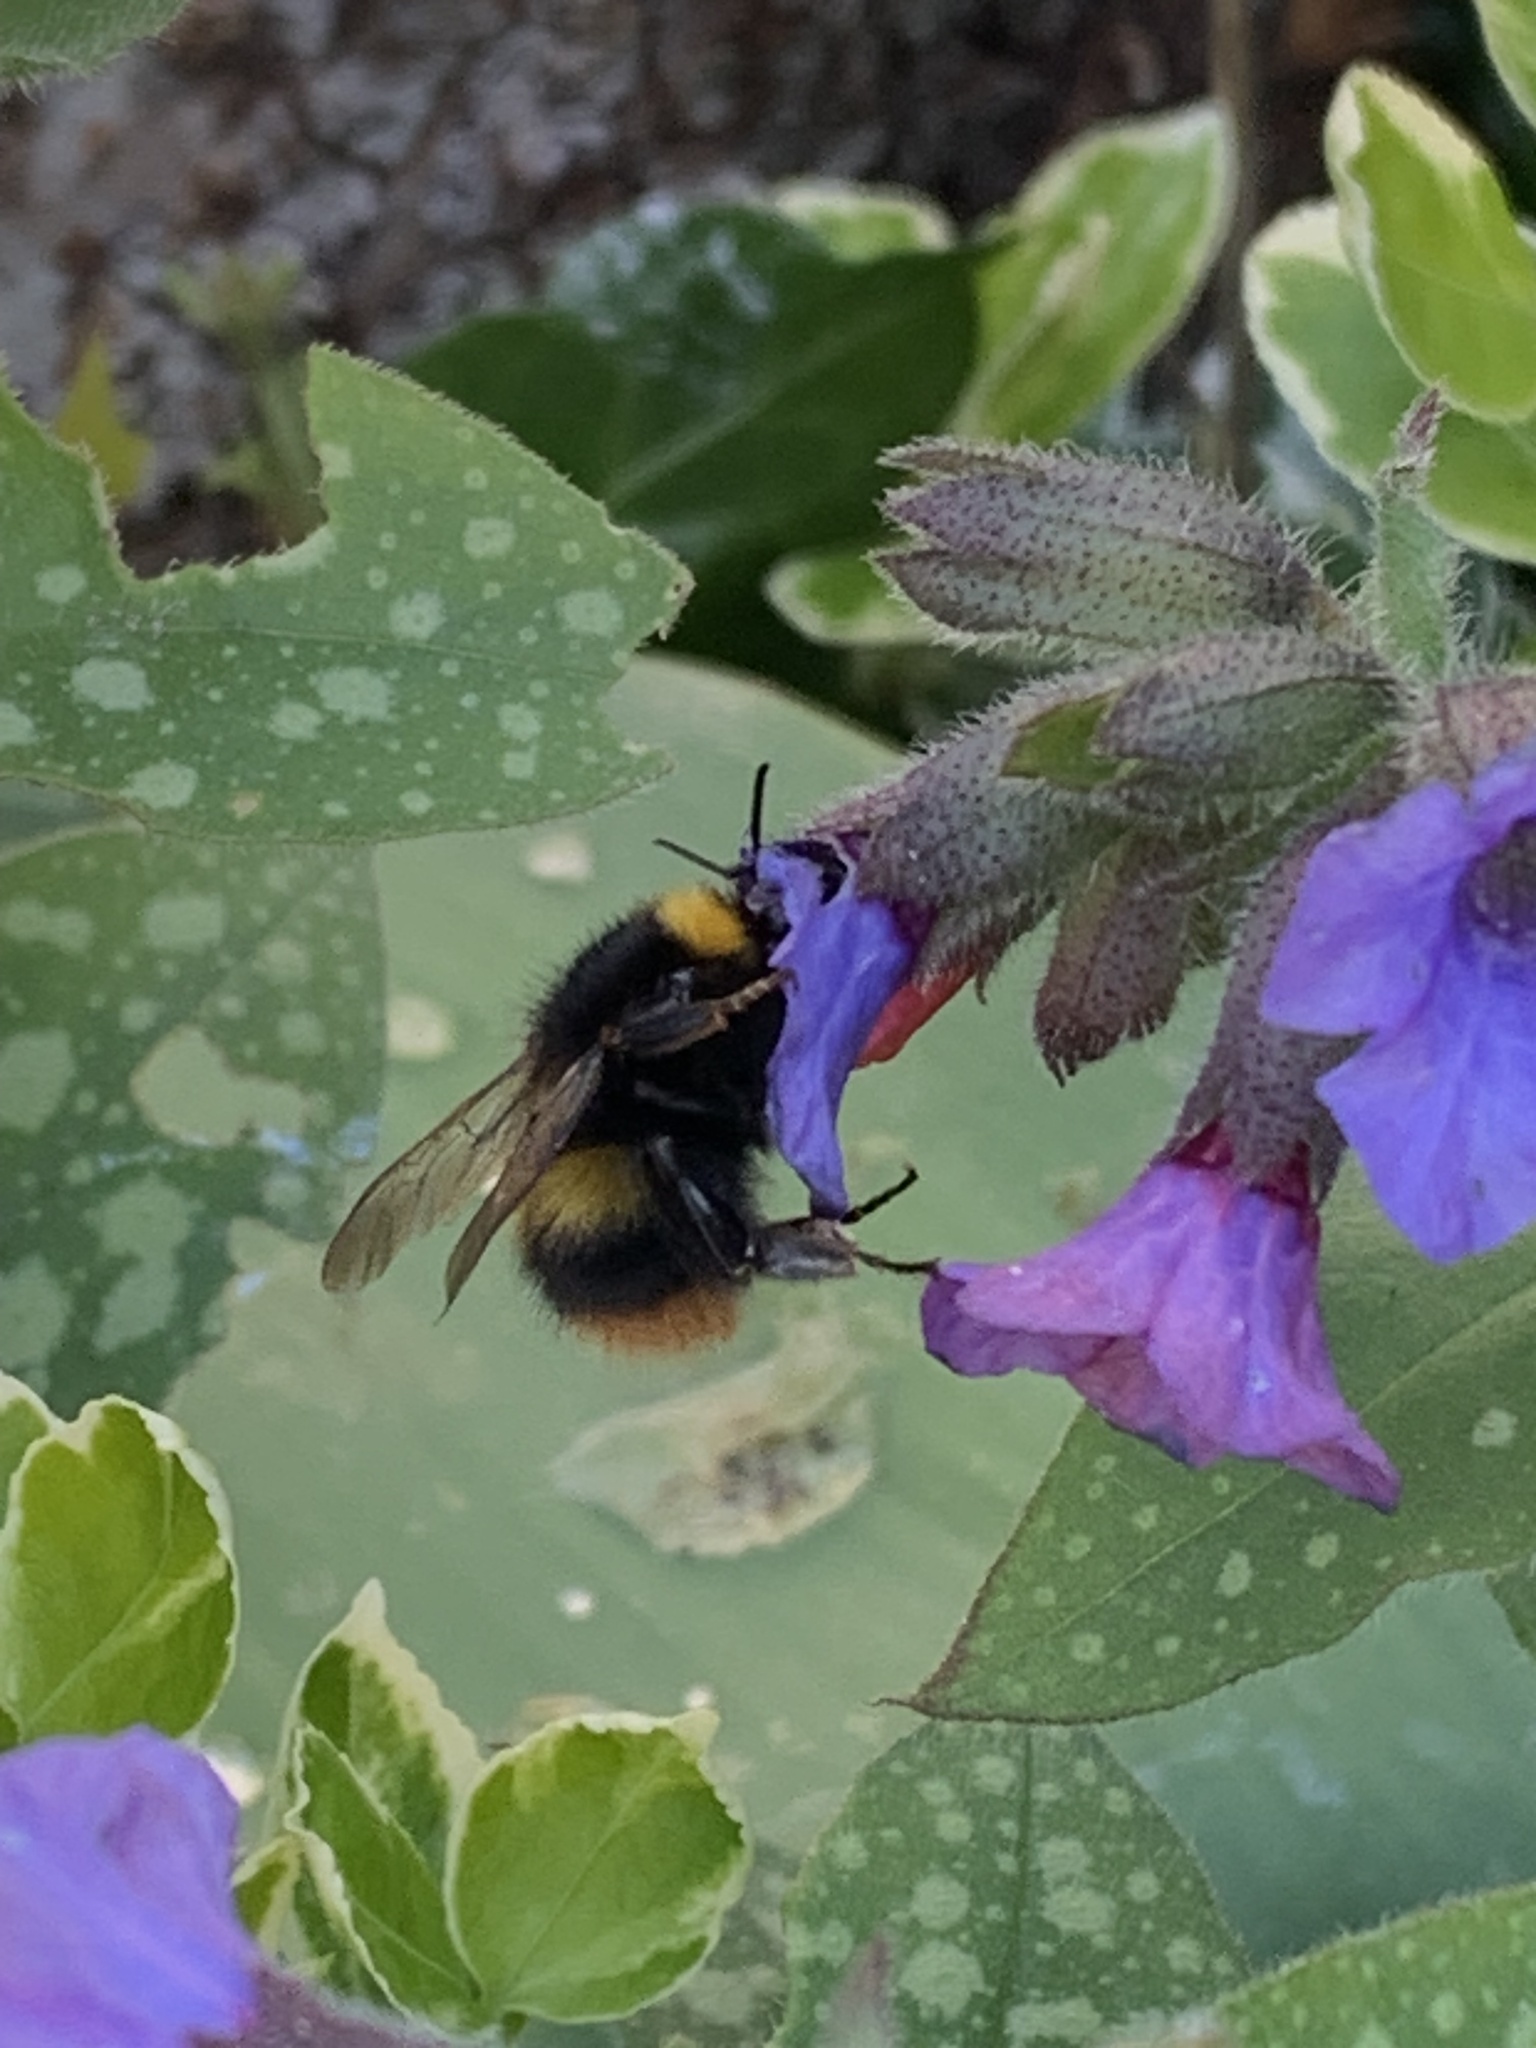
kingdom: Animalia
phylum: Arthropoda
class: Insecta
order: Hymenoptera
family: Apidae
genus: Bombus
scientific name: Bombus pratorum
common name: Early humble-bee
